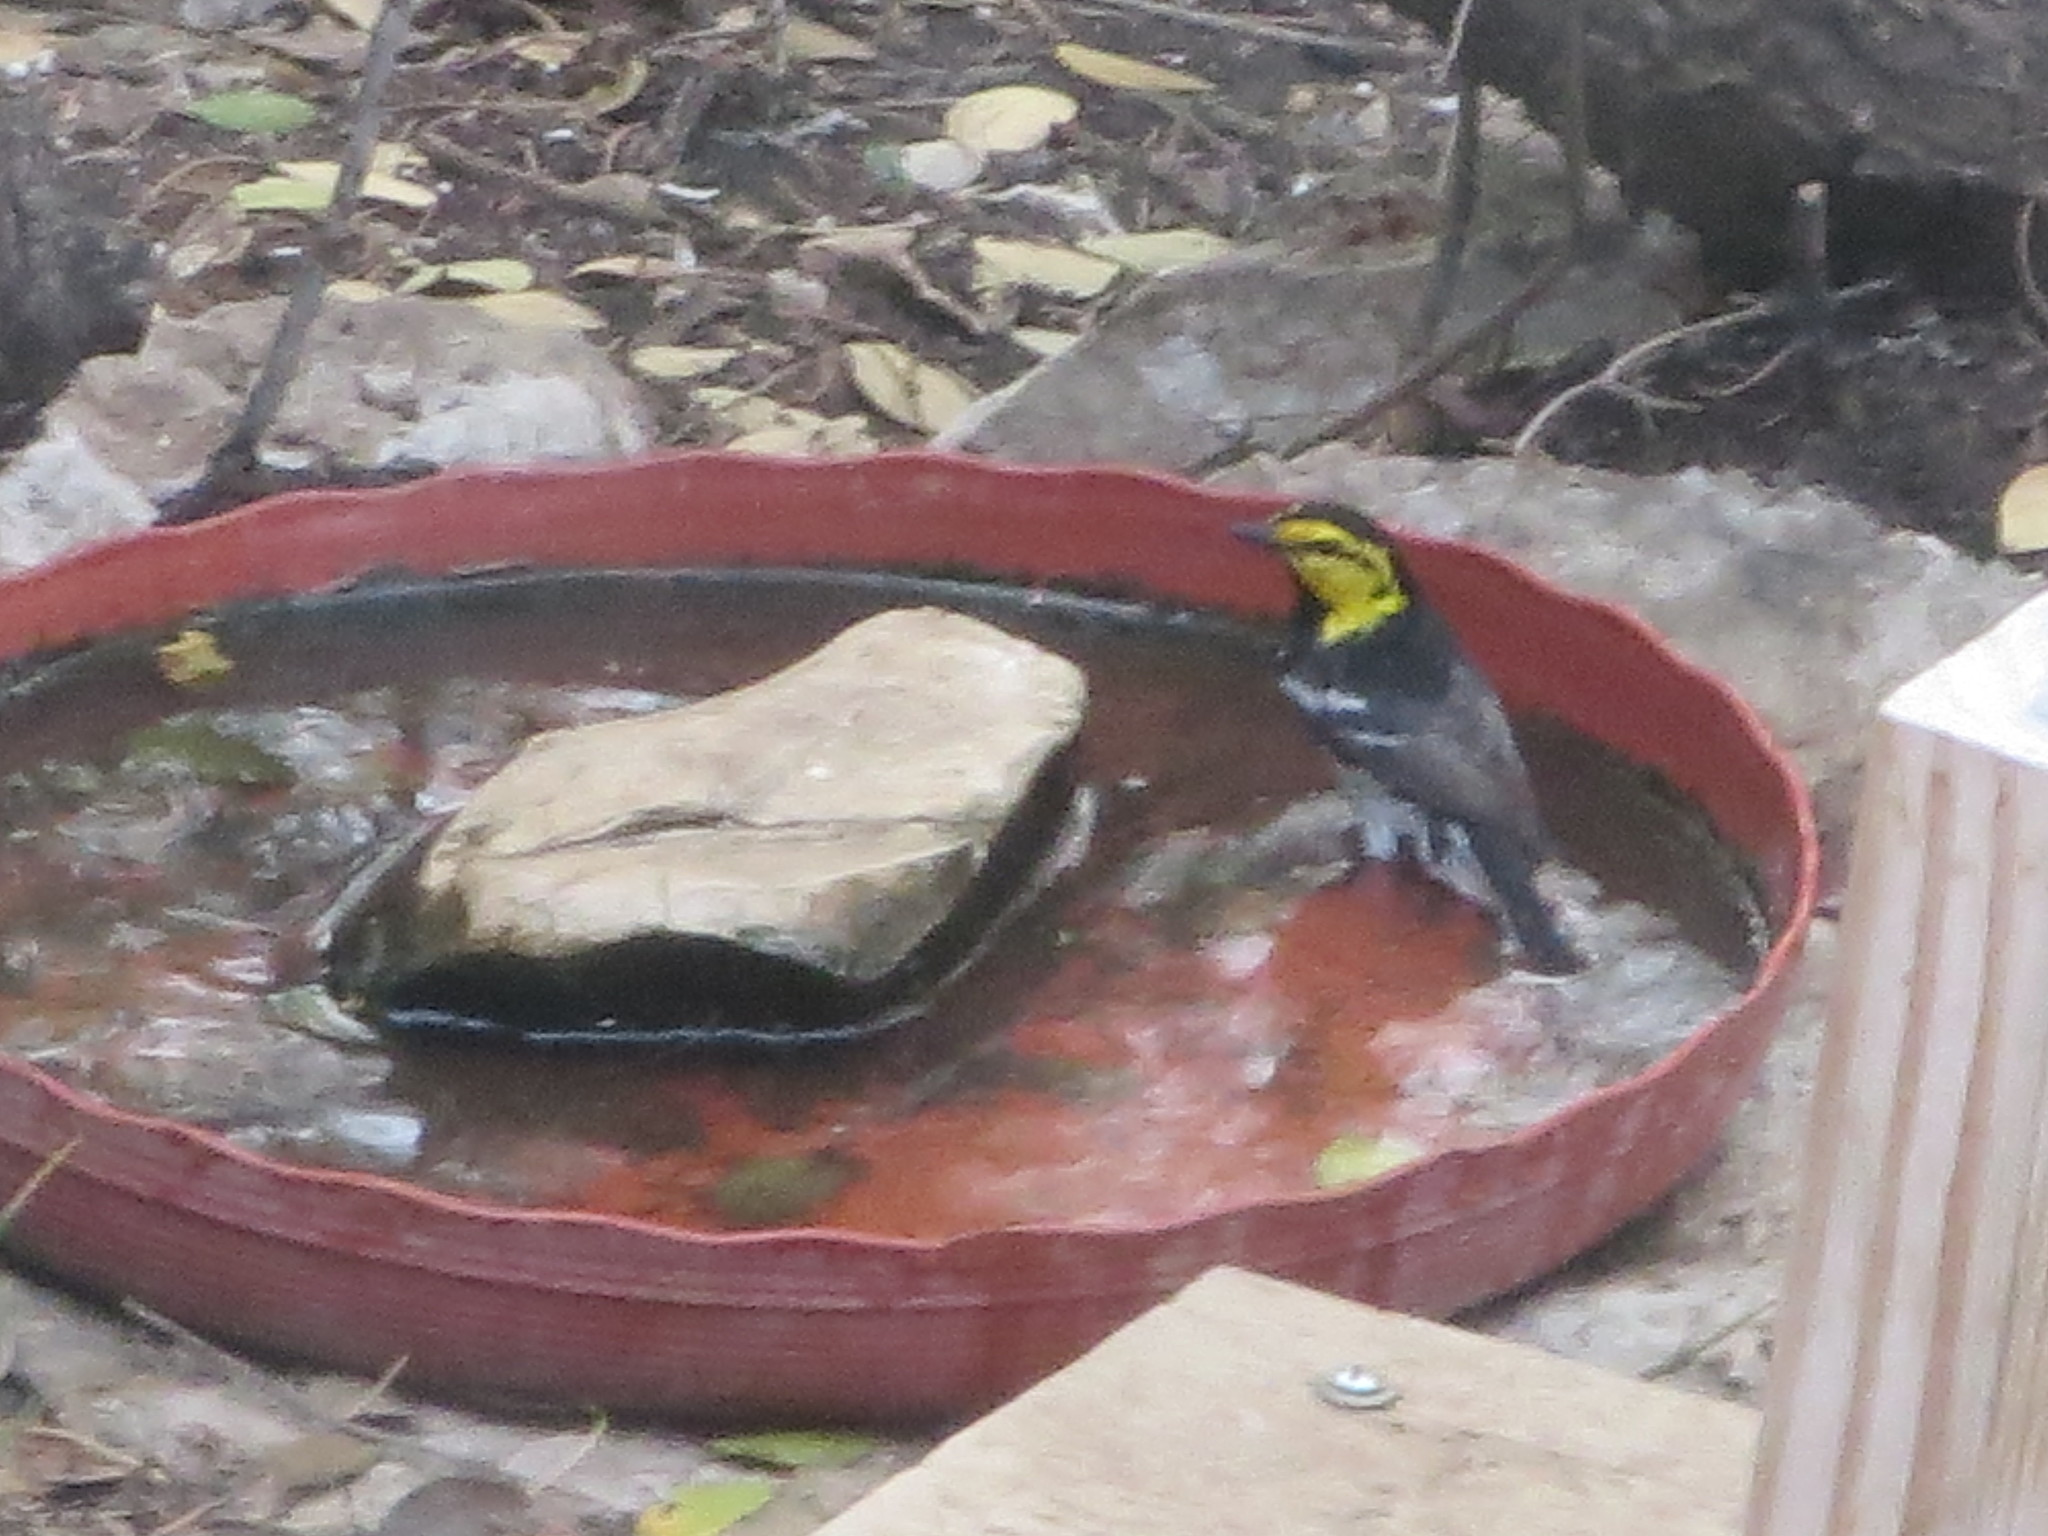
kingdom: Animalia
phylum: Chordata
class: Aves
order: Passeriformes
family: Parulidae
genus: Setophaga
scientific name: Setophaga chrysoparia
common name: Golden-cheeked warbler
